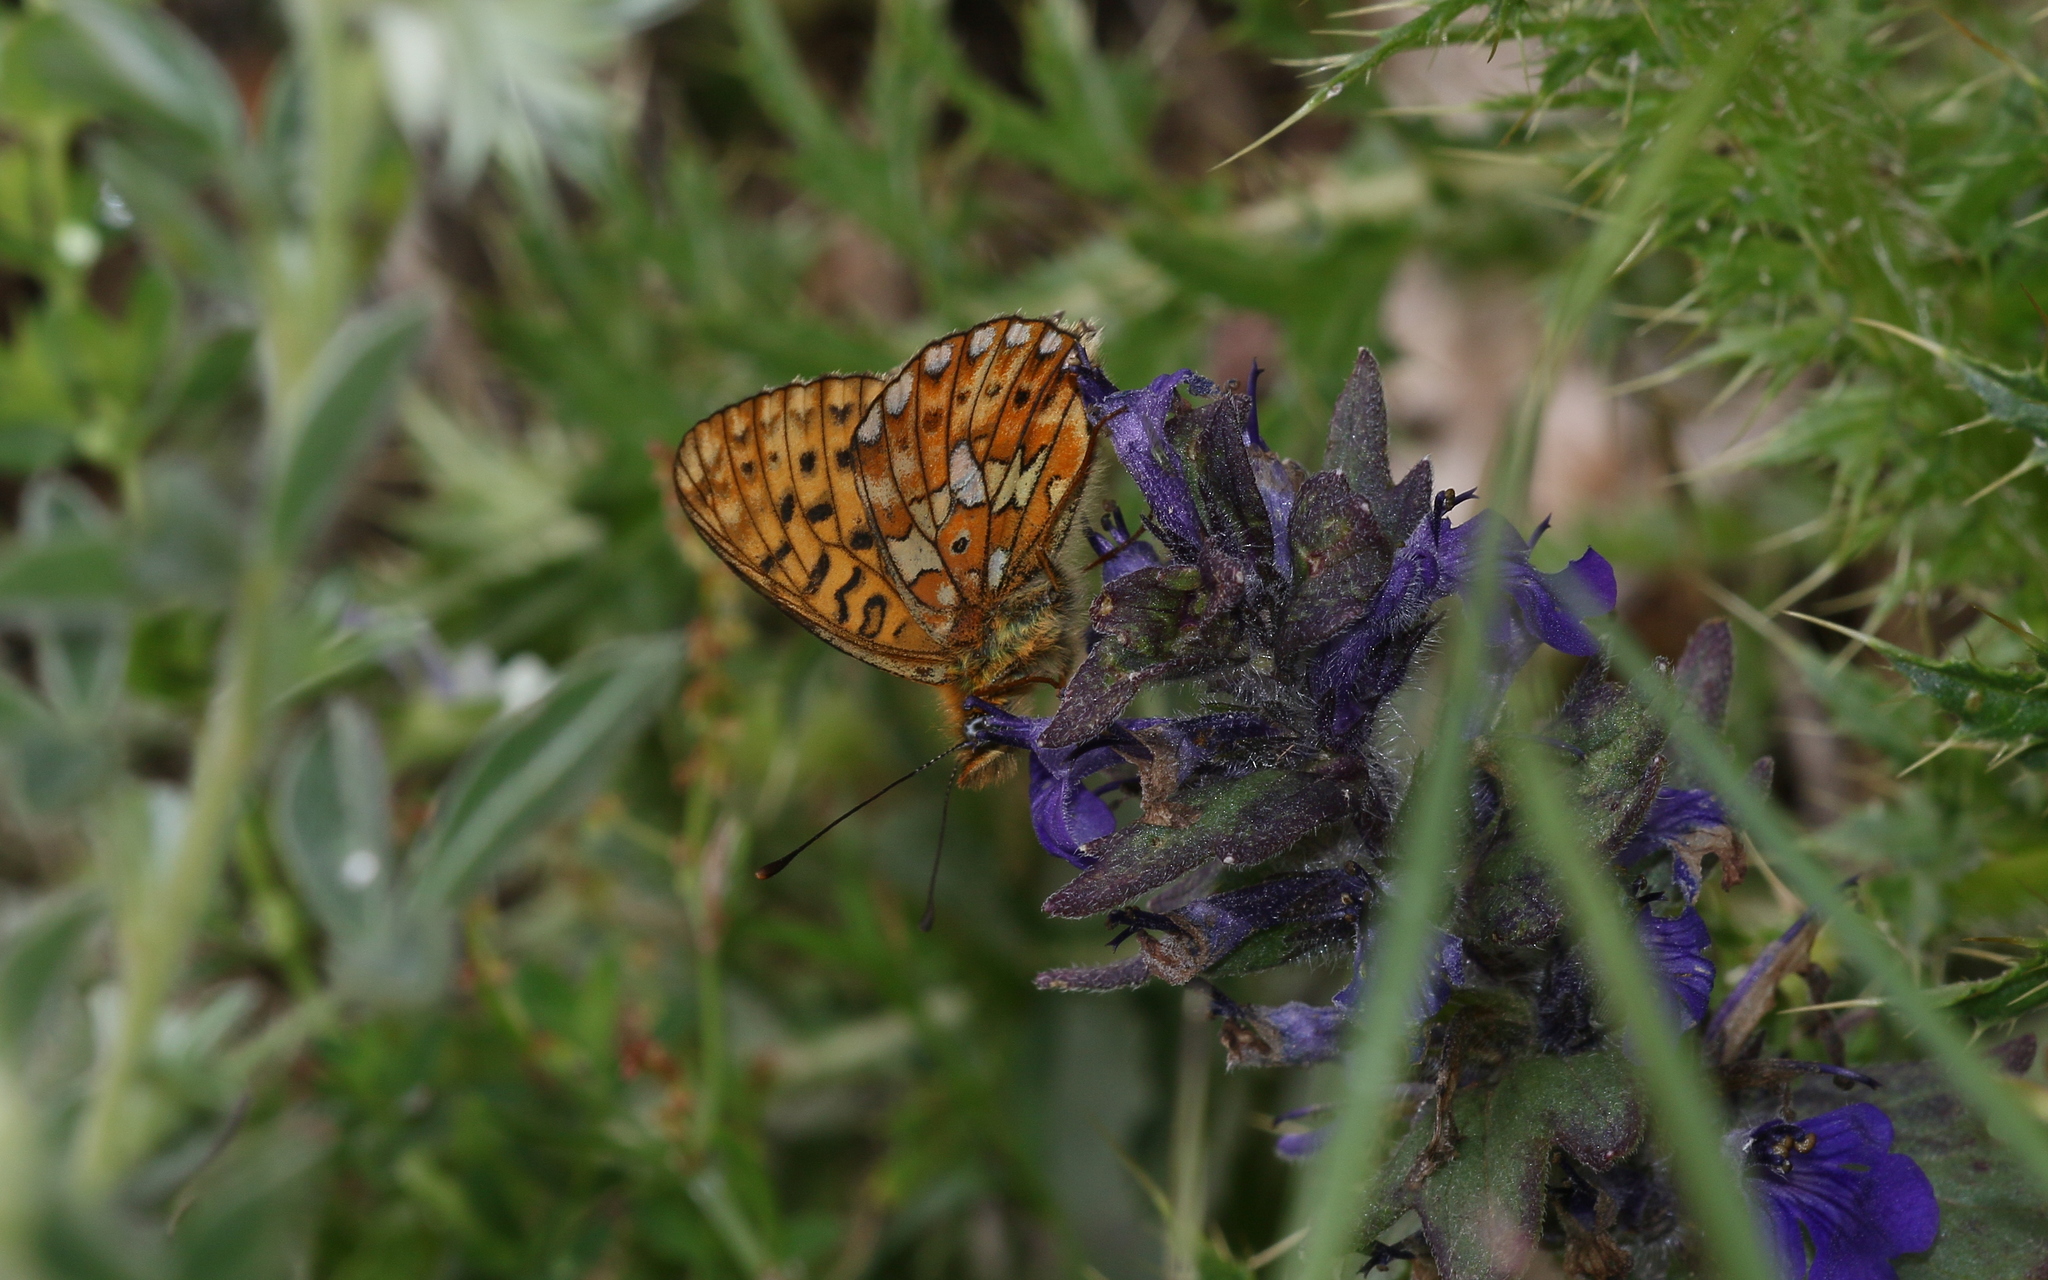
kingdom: Animalia
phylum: Arthropoda
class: Insecta
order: Lepidoptera
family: Nymphalidae
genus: Clossiana
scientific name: Clossiana euphrosyne
